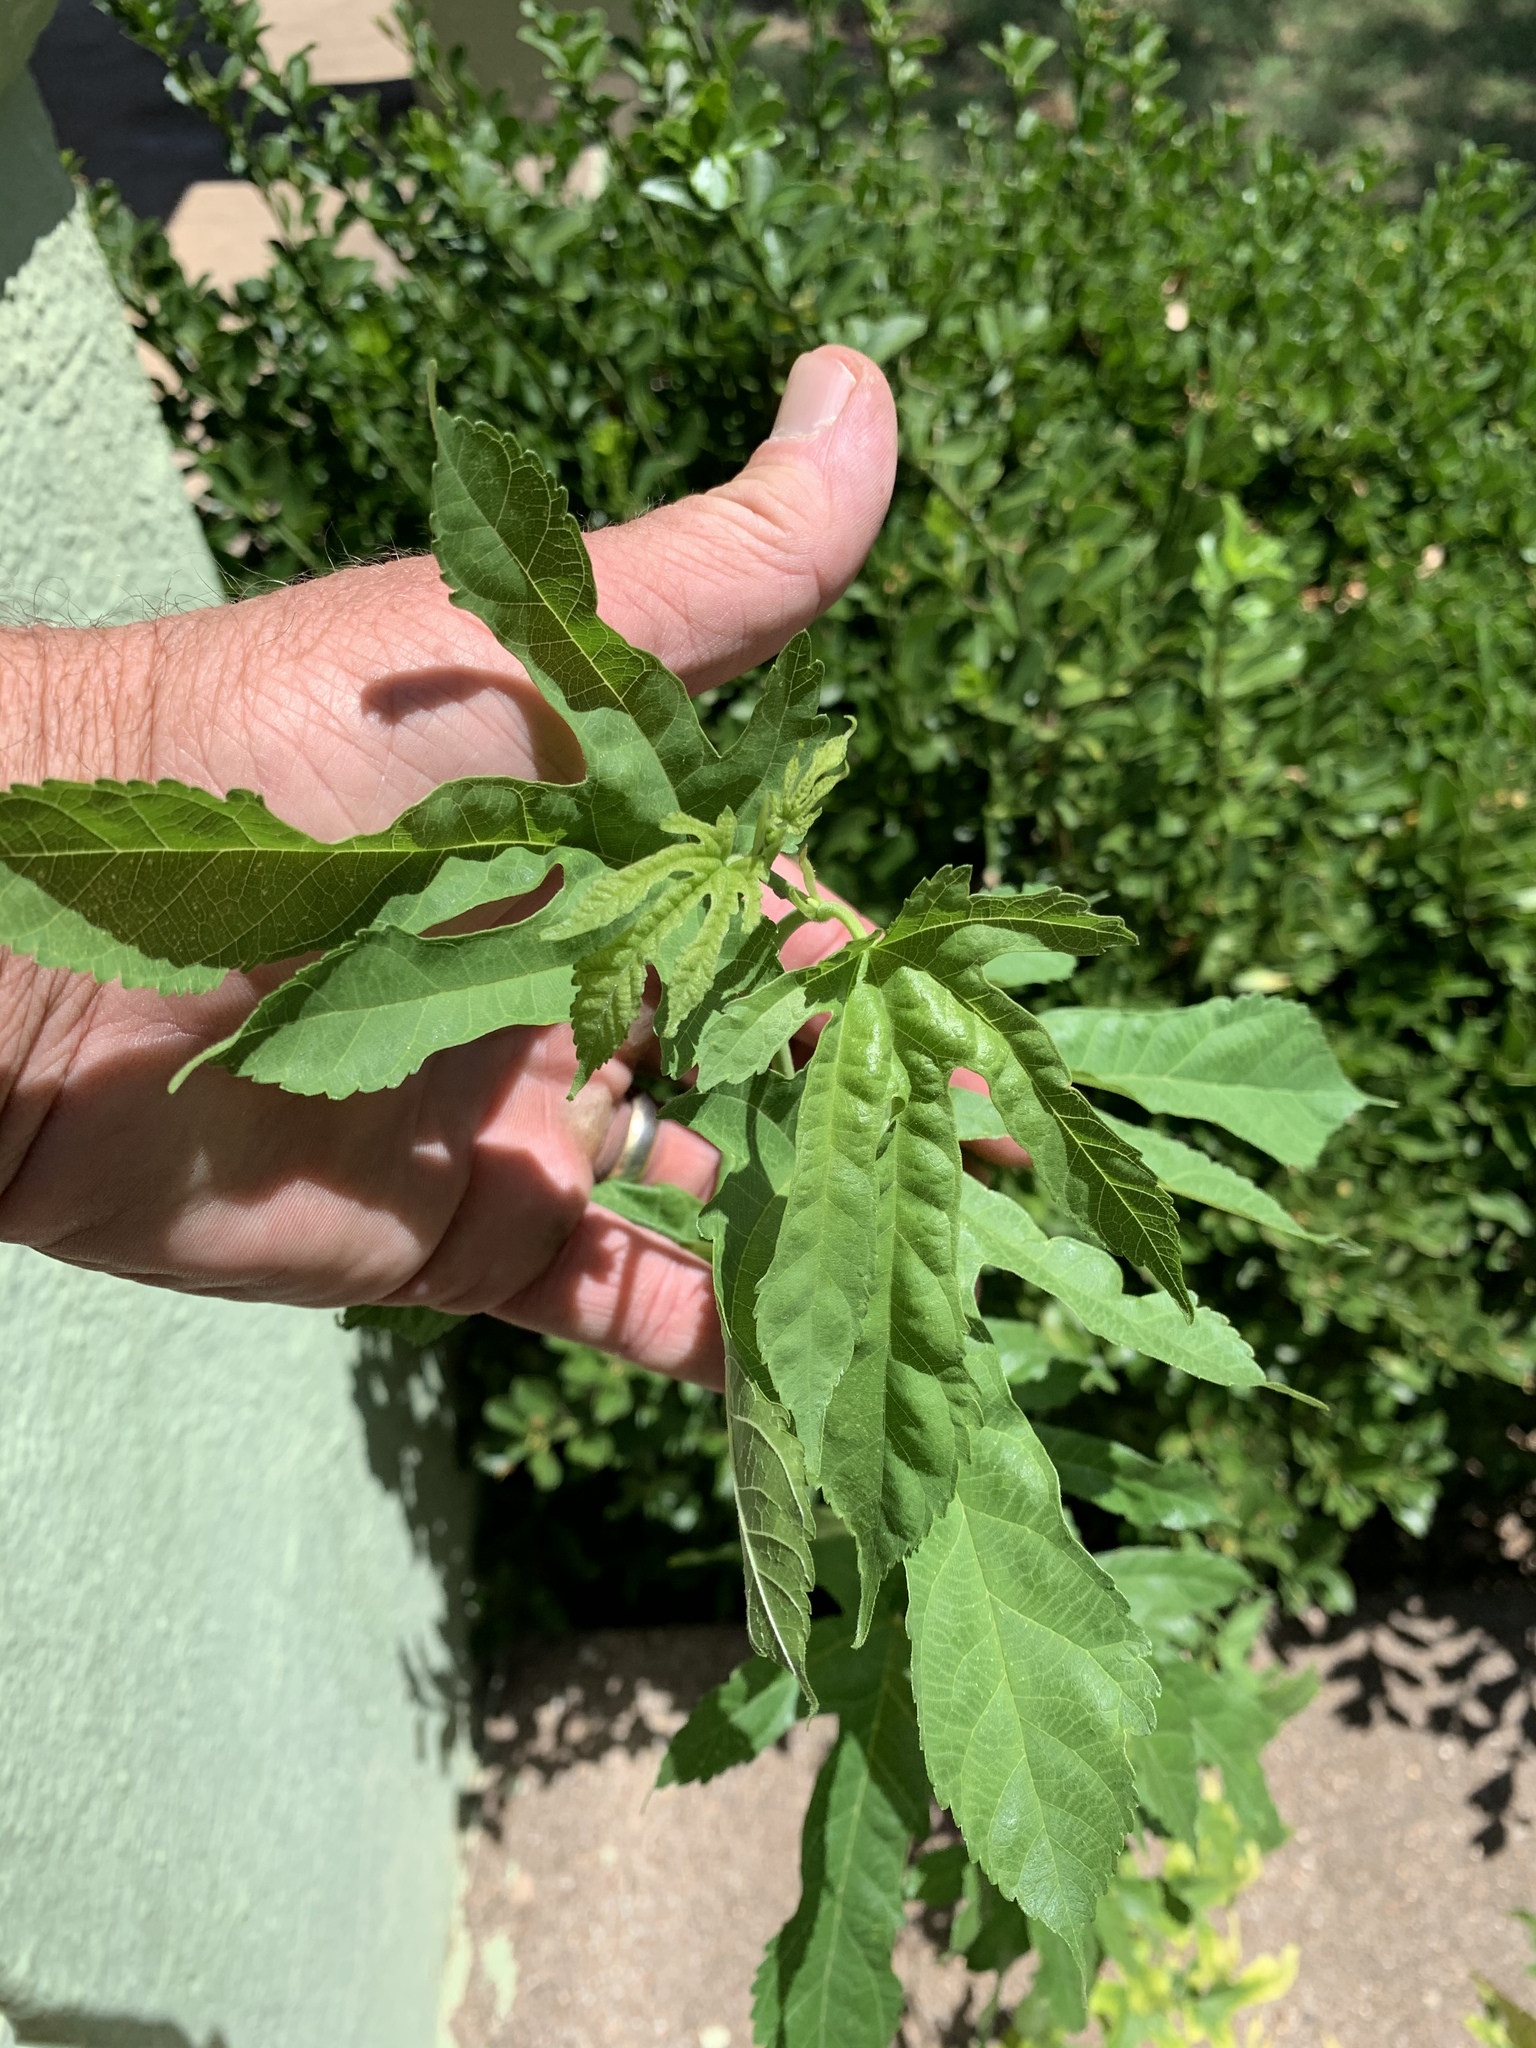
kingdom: Plantae
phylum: Tracheophyta
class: Magnoliopsida
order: Rosales
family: Moraceae
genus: Morus
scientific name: Morus alba
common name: White mulberry
